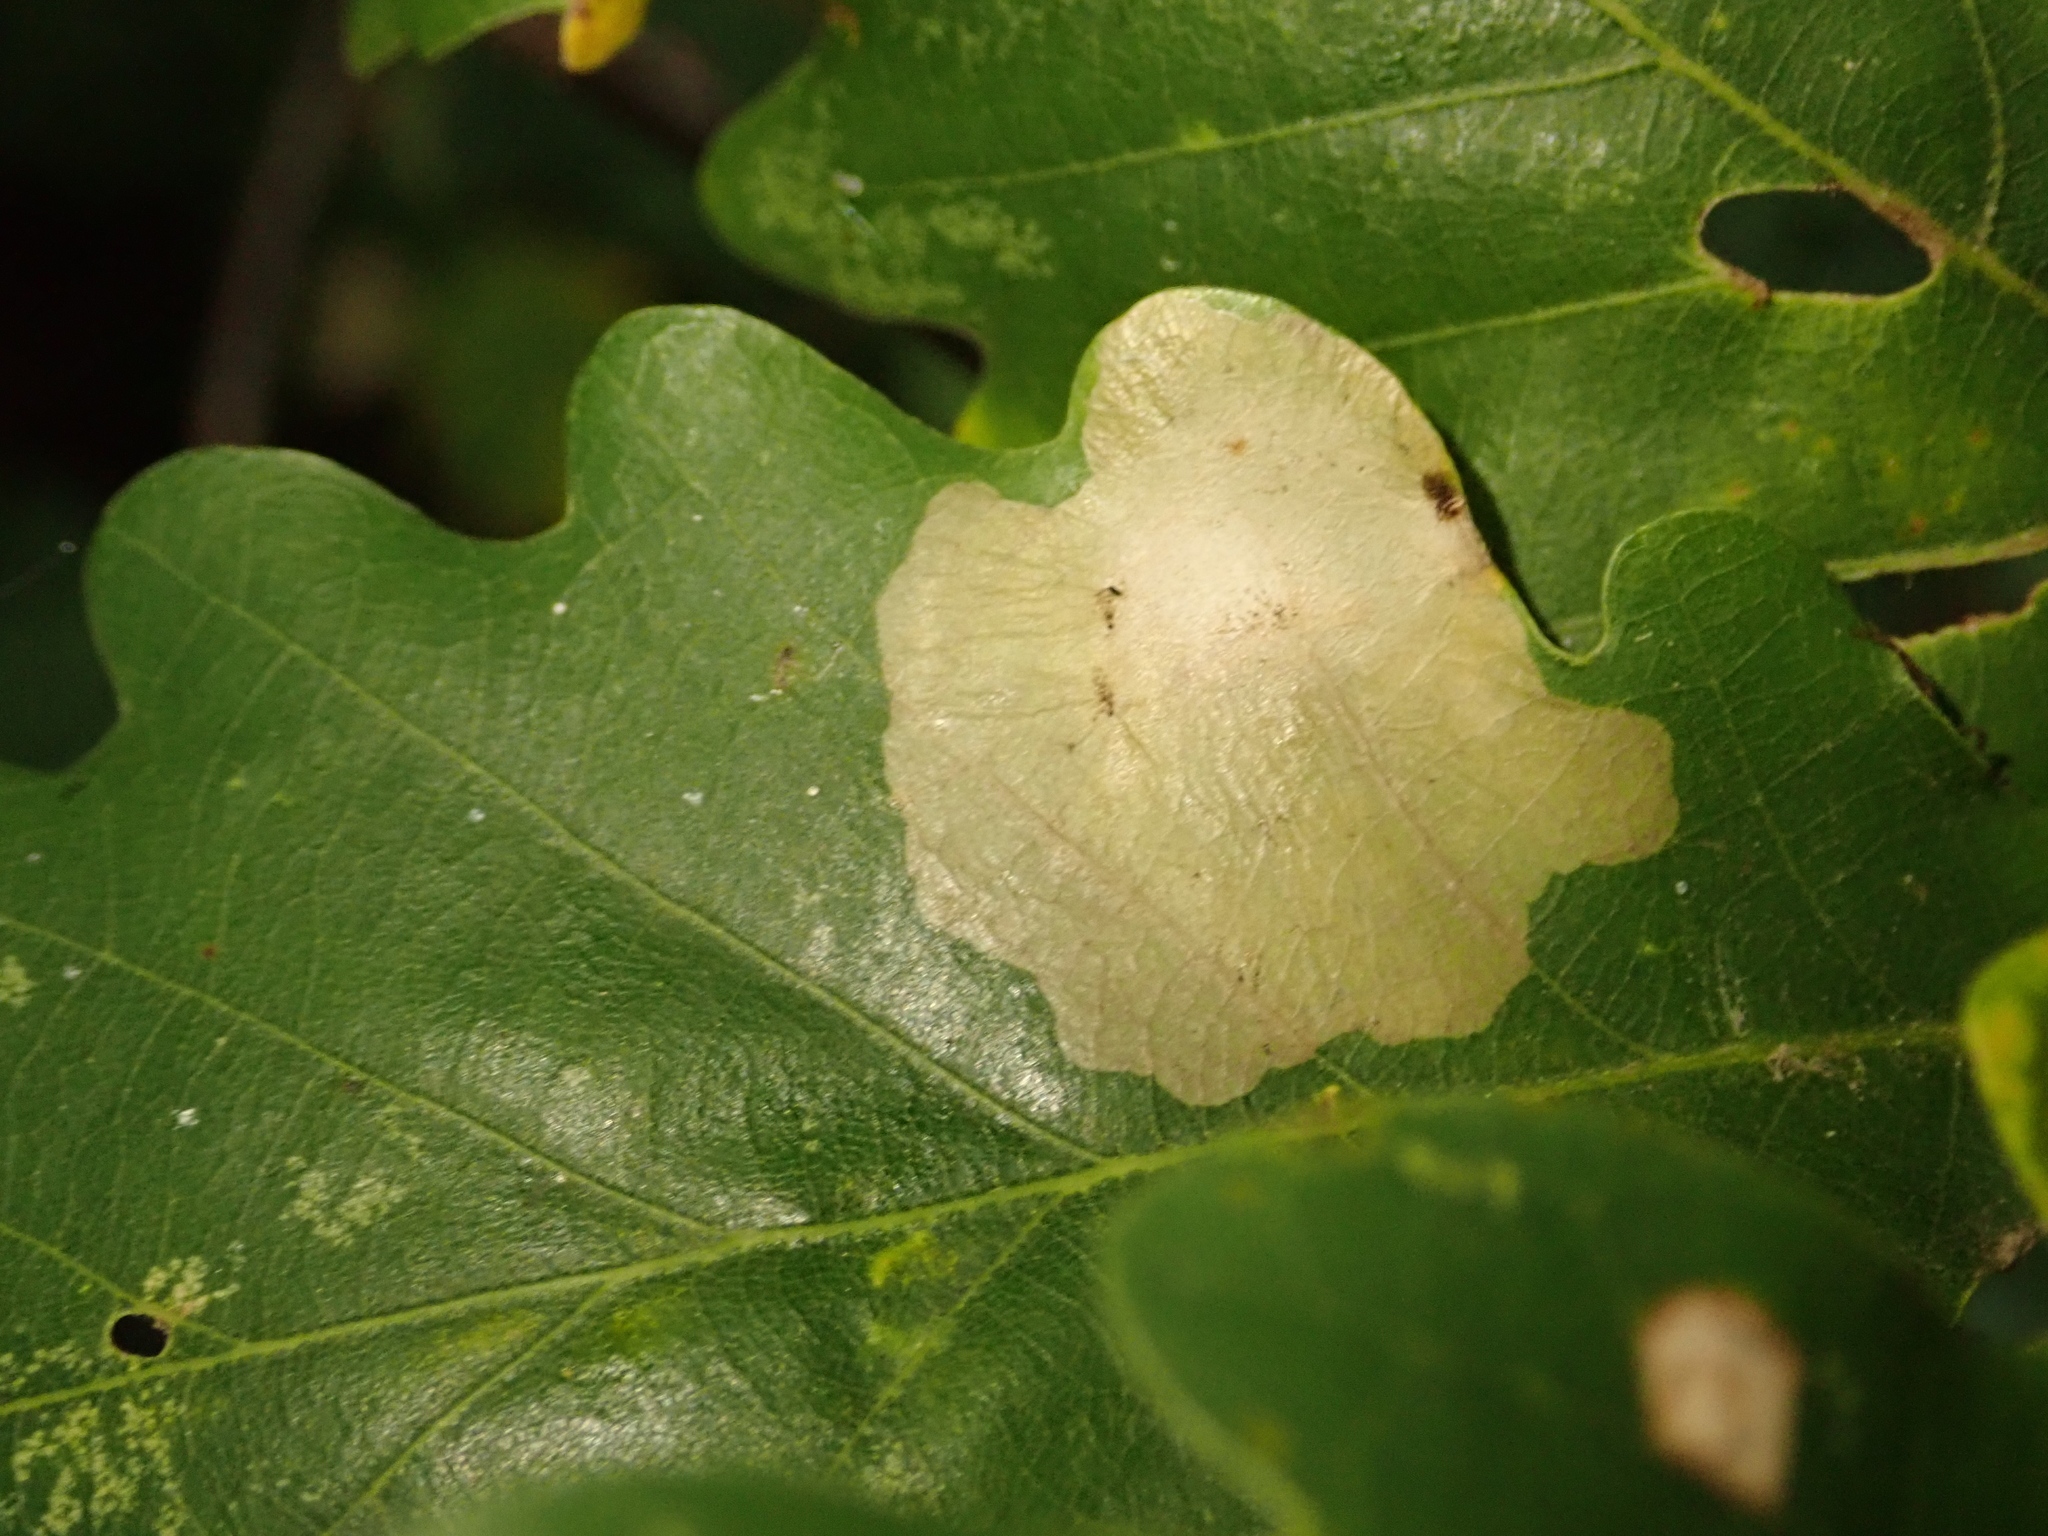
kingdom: Animalia
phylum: Arthropoda
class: Insecta
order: Lepidoptera
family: Tischeriidae
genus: Tischeria
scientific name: Tischeria ekebladella
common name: Oak carl
